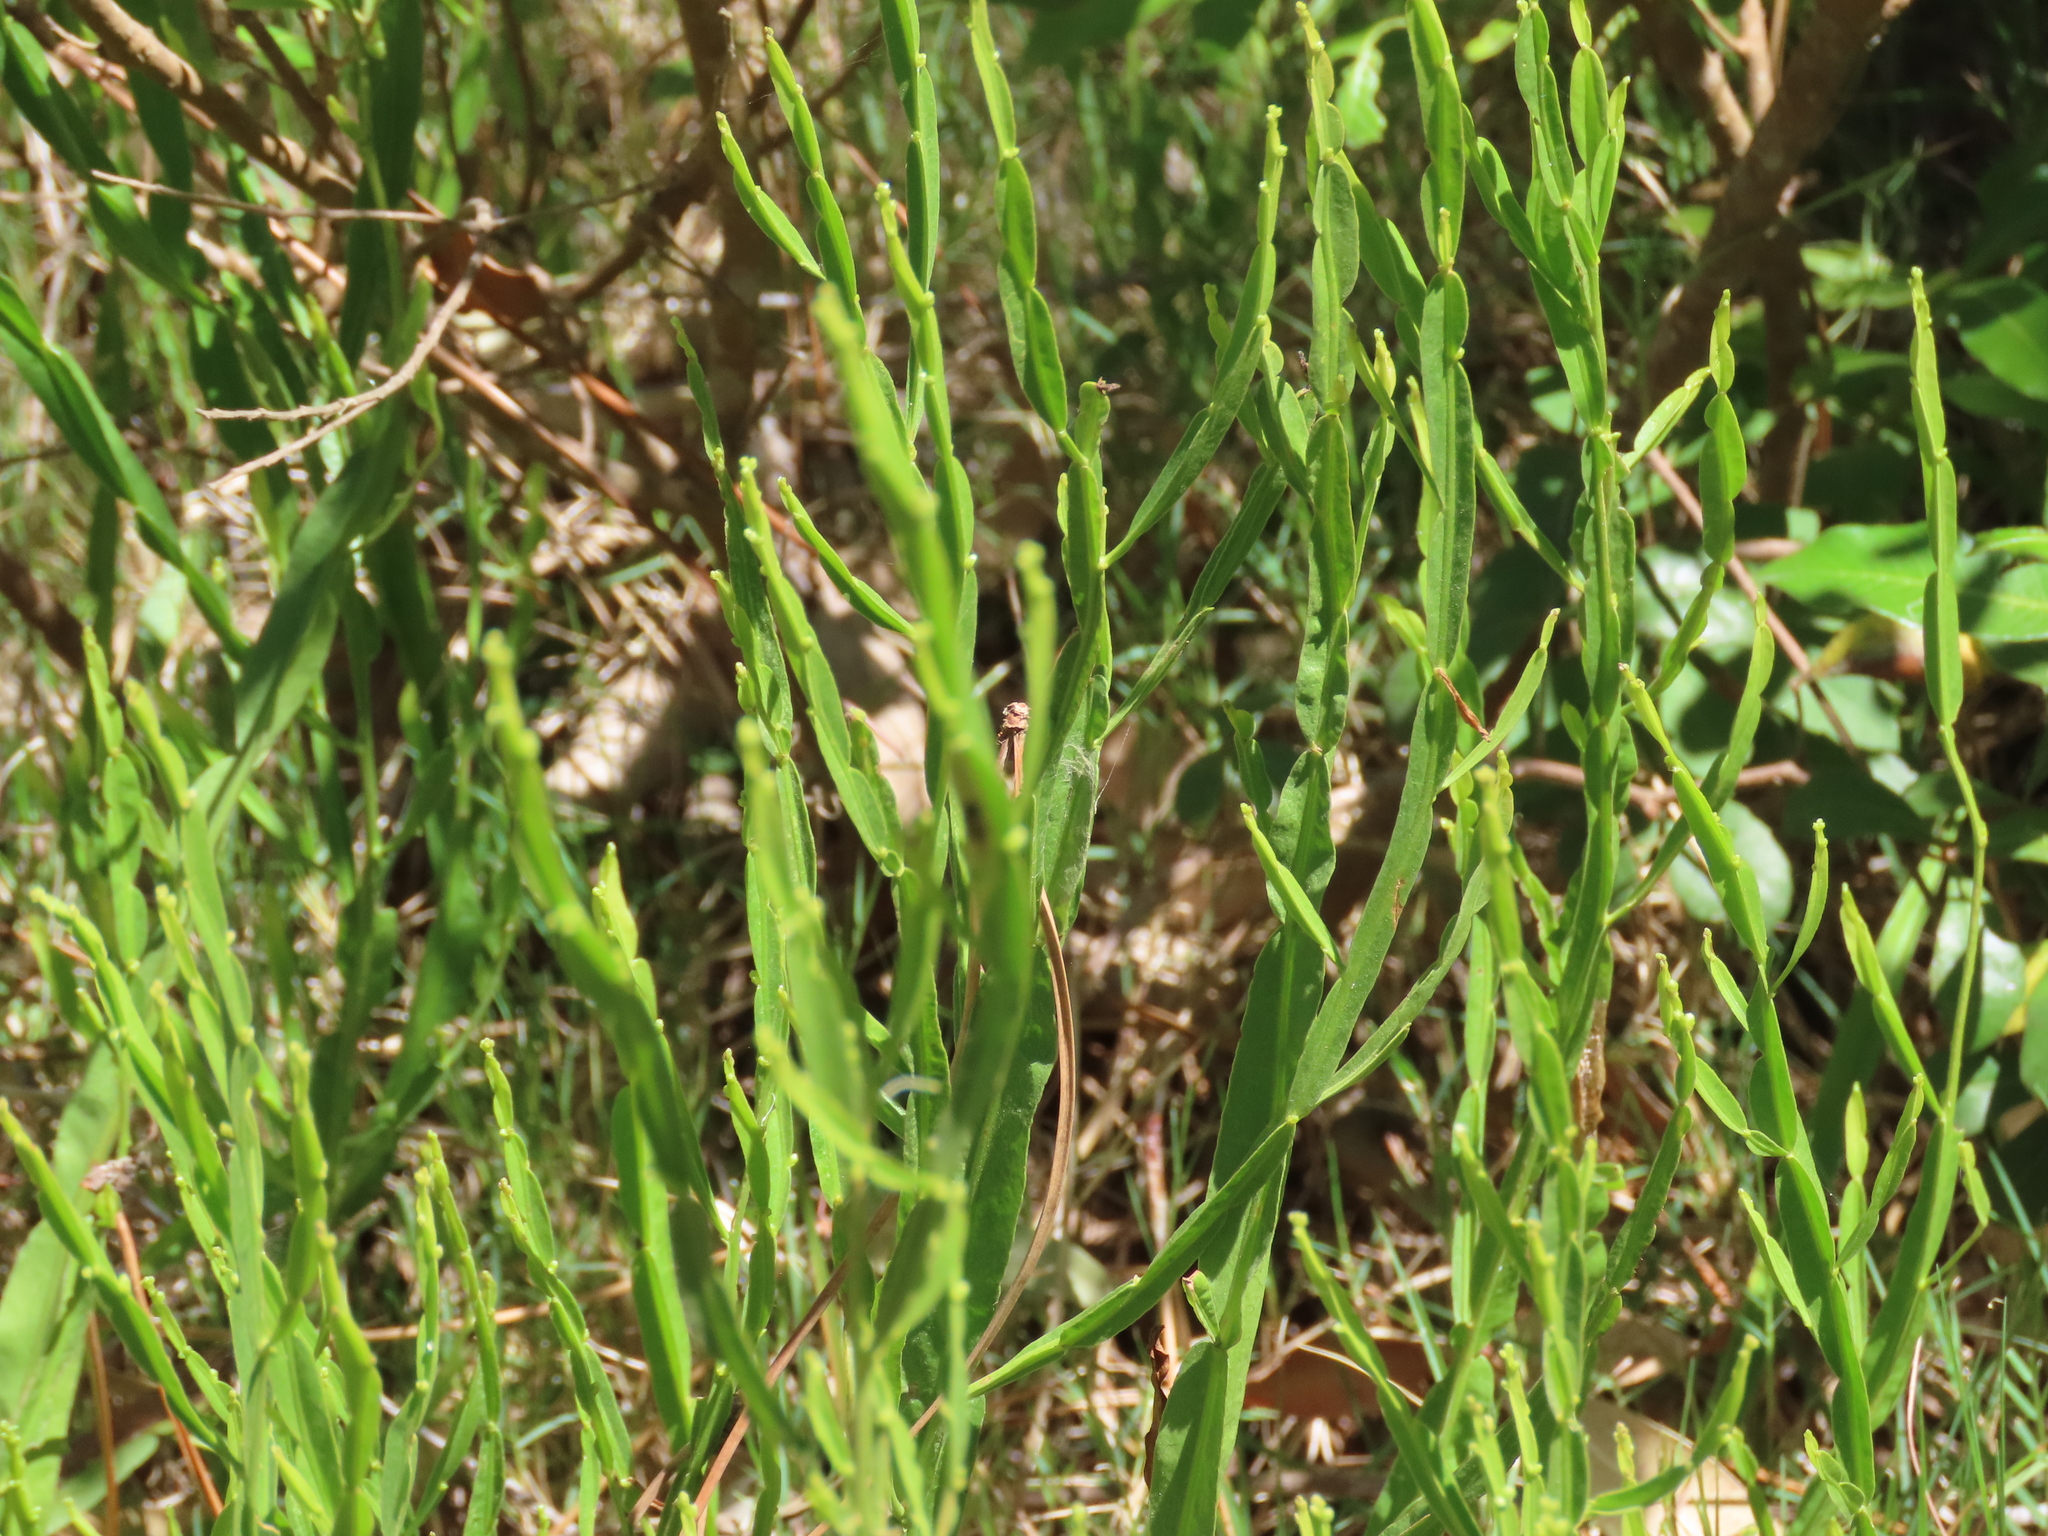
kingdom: Plantae
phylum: Tracheophyta
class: Magnoliopsida
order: Asterales
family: Asteraceae
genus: Baccharis
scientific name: Baccharis trimera
